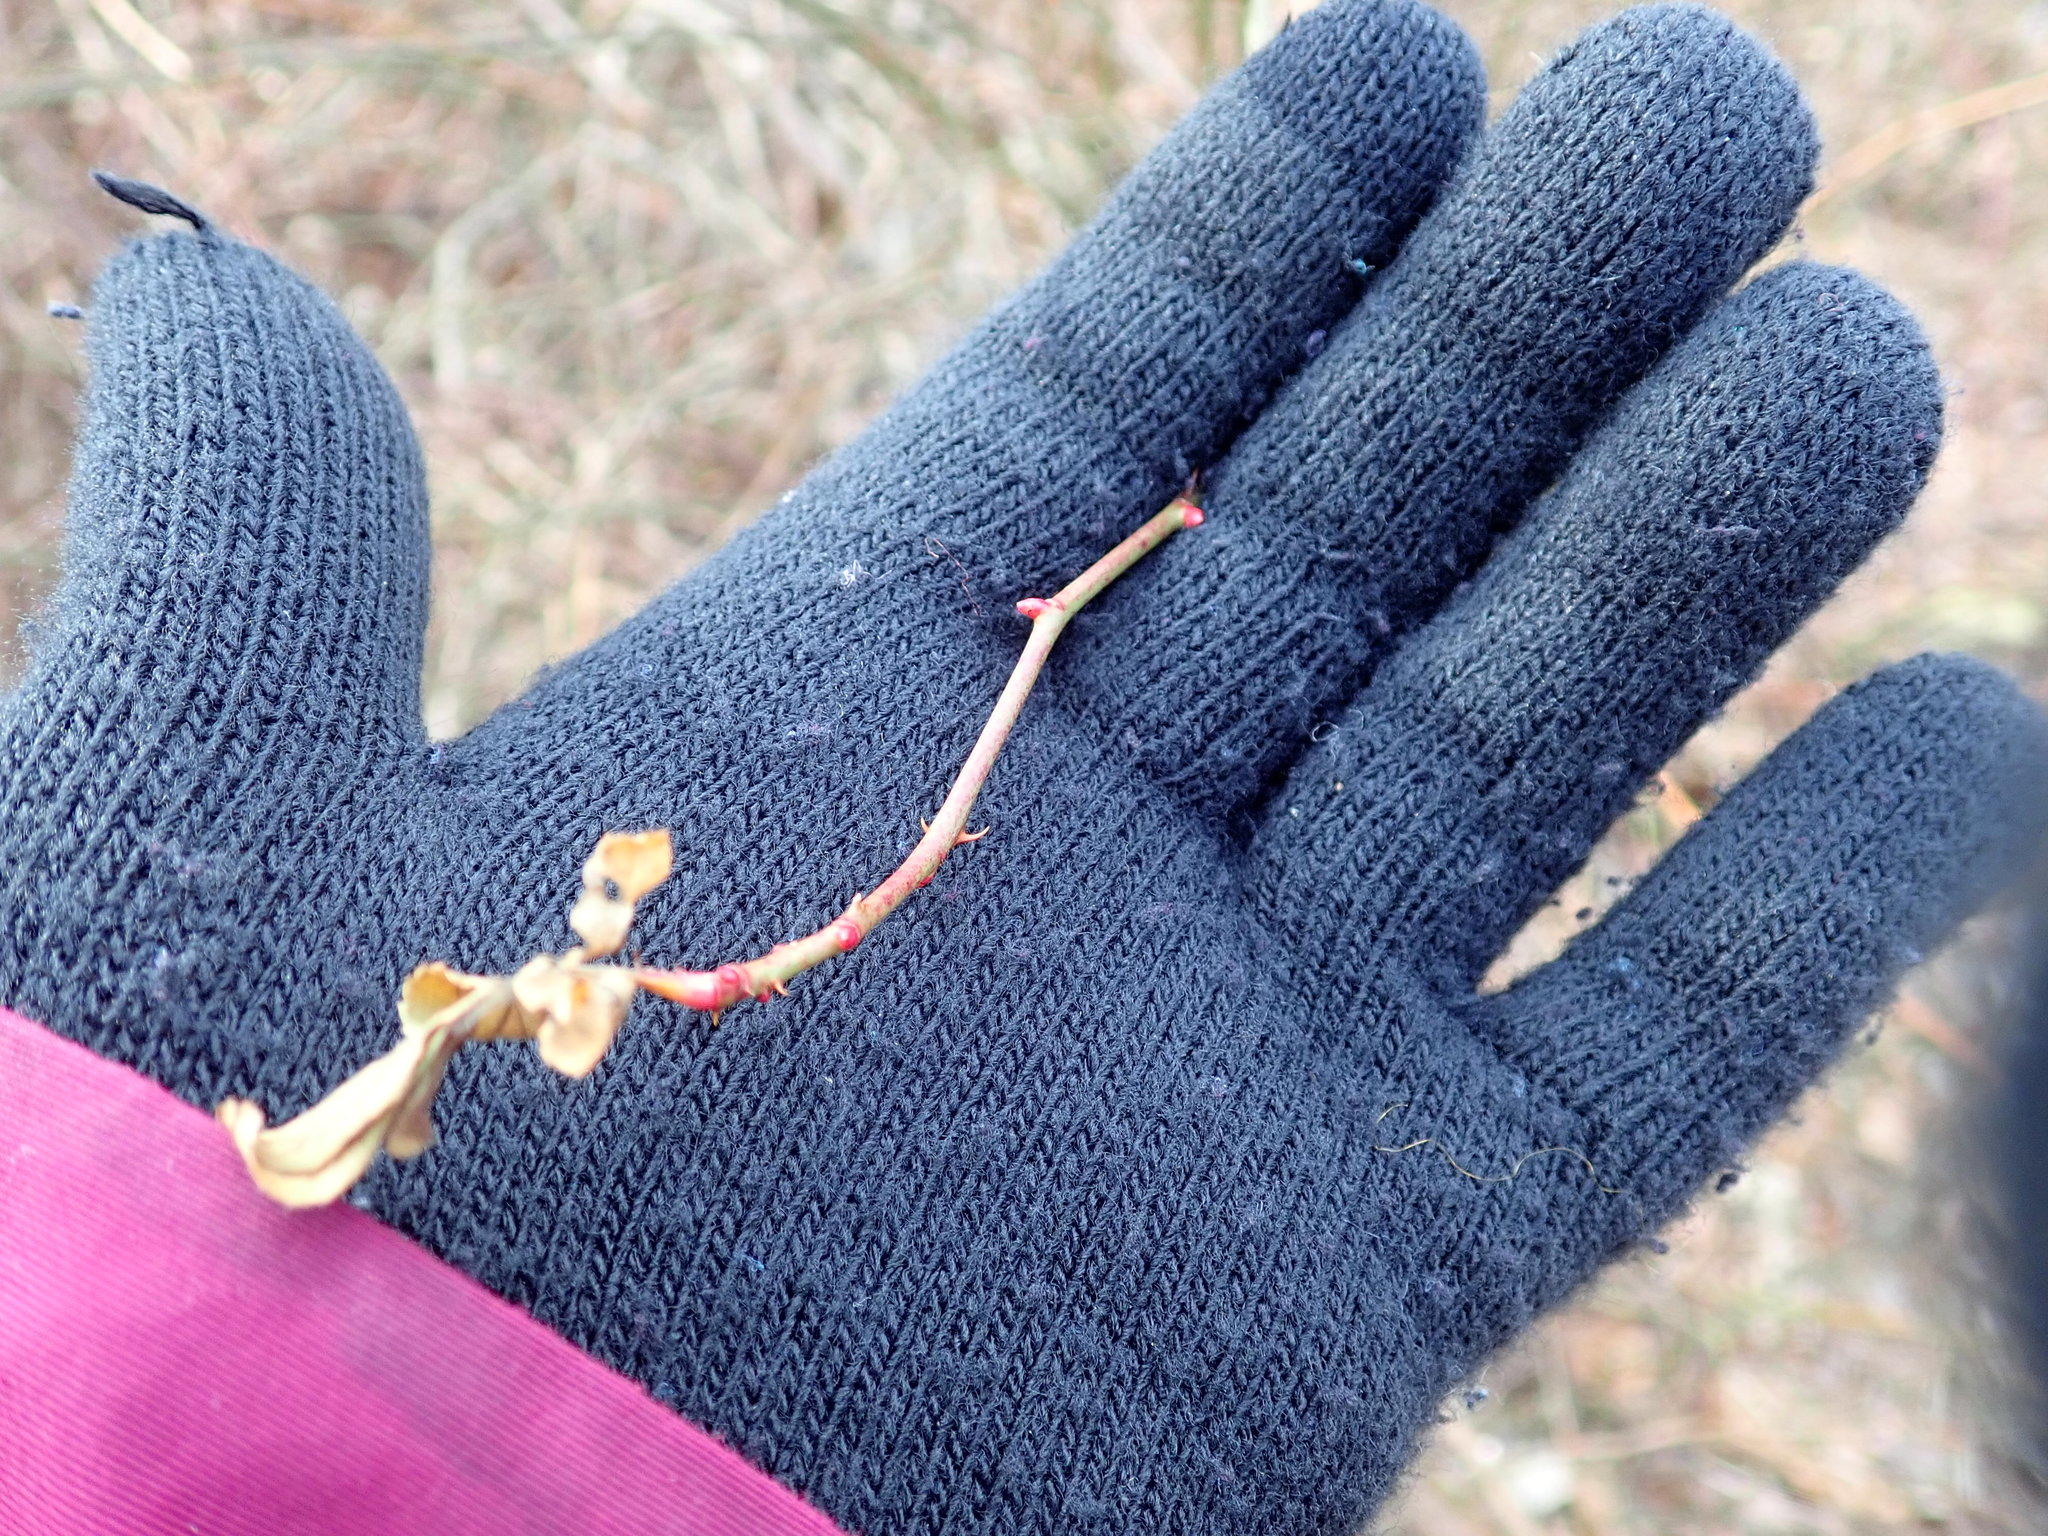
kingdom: Plantae
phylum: Tracheophyta
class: Magnoliopsida
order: Rosales
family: Rosaceae
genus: Rosa
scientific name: Rosa multiflora
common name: Multiflora rose
